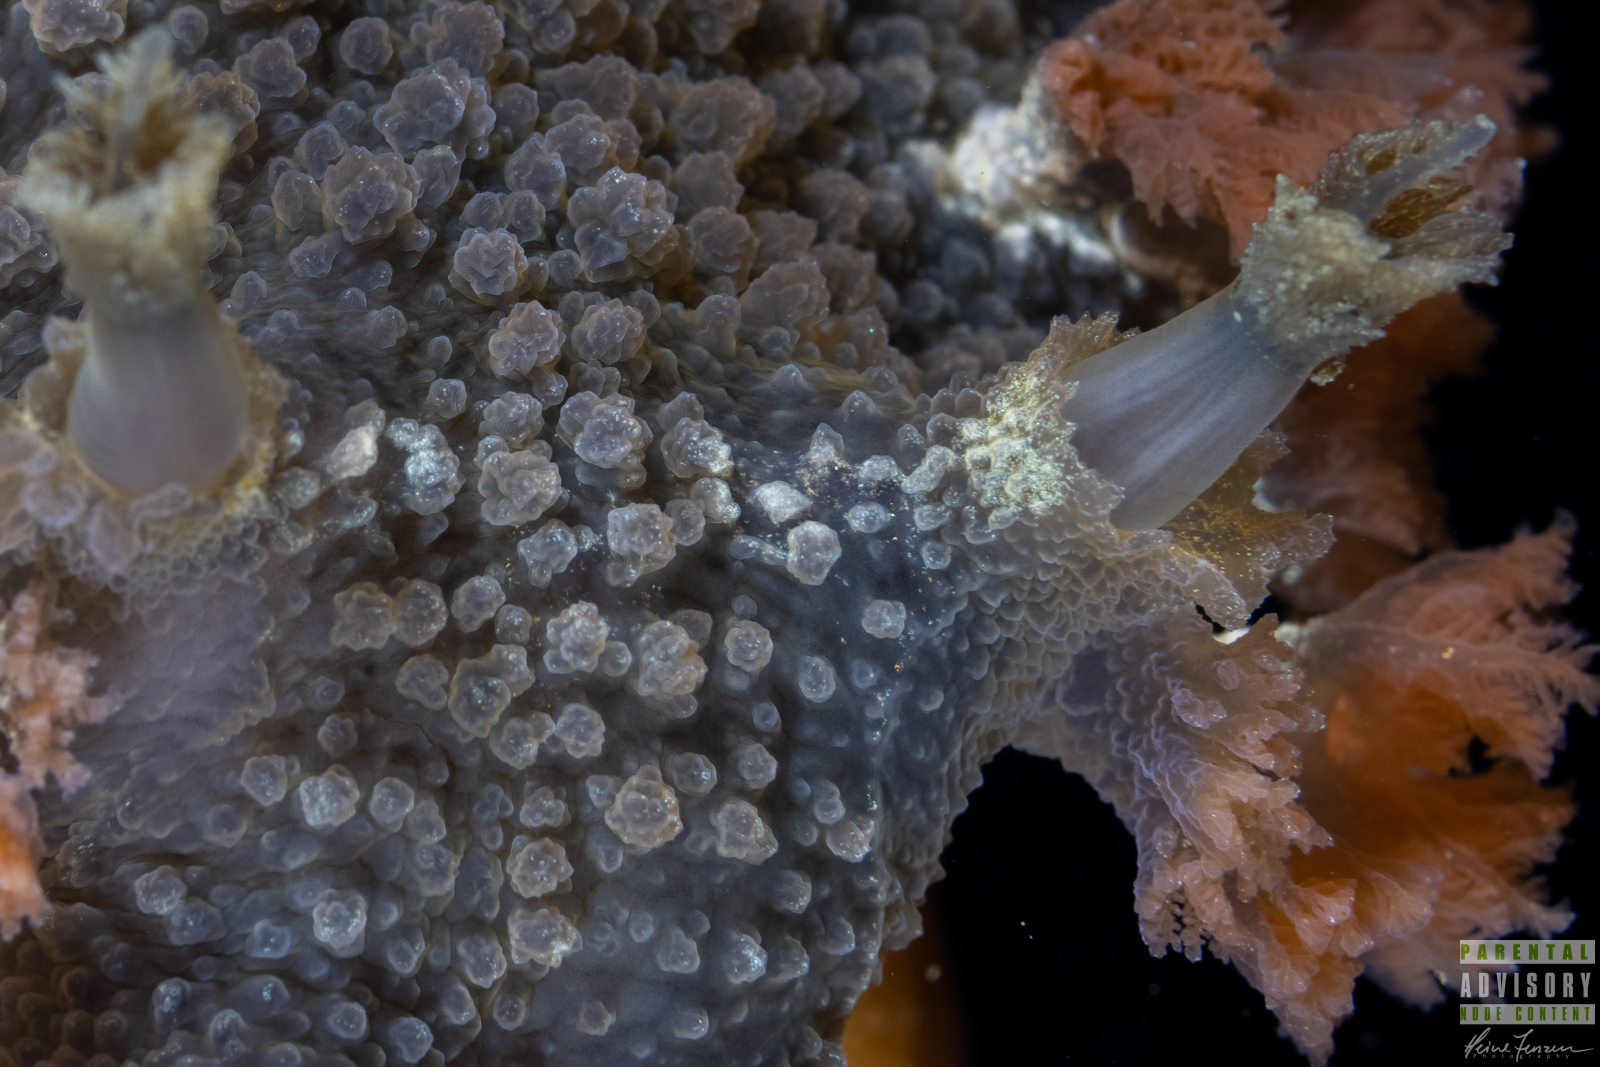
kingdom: Animalia
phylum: Mollusca
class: Gastropoda
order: Nudibranchia
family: Tritoniidae
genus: Tritonia
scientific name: Tritonia hombergii
